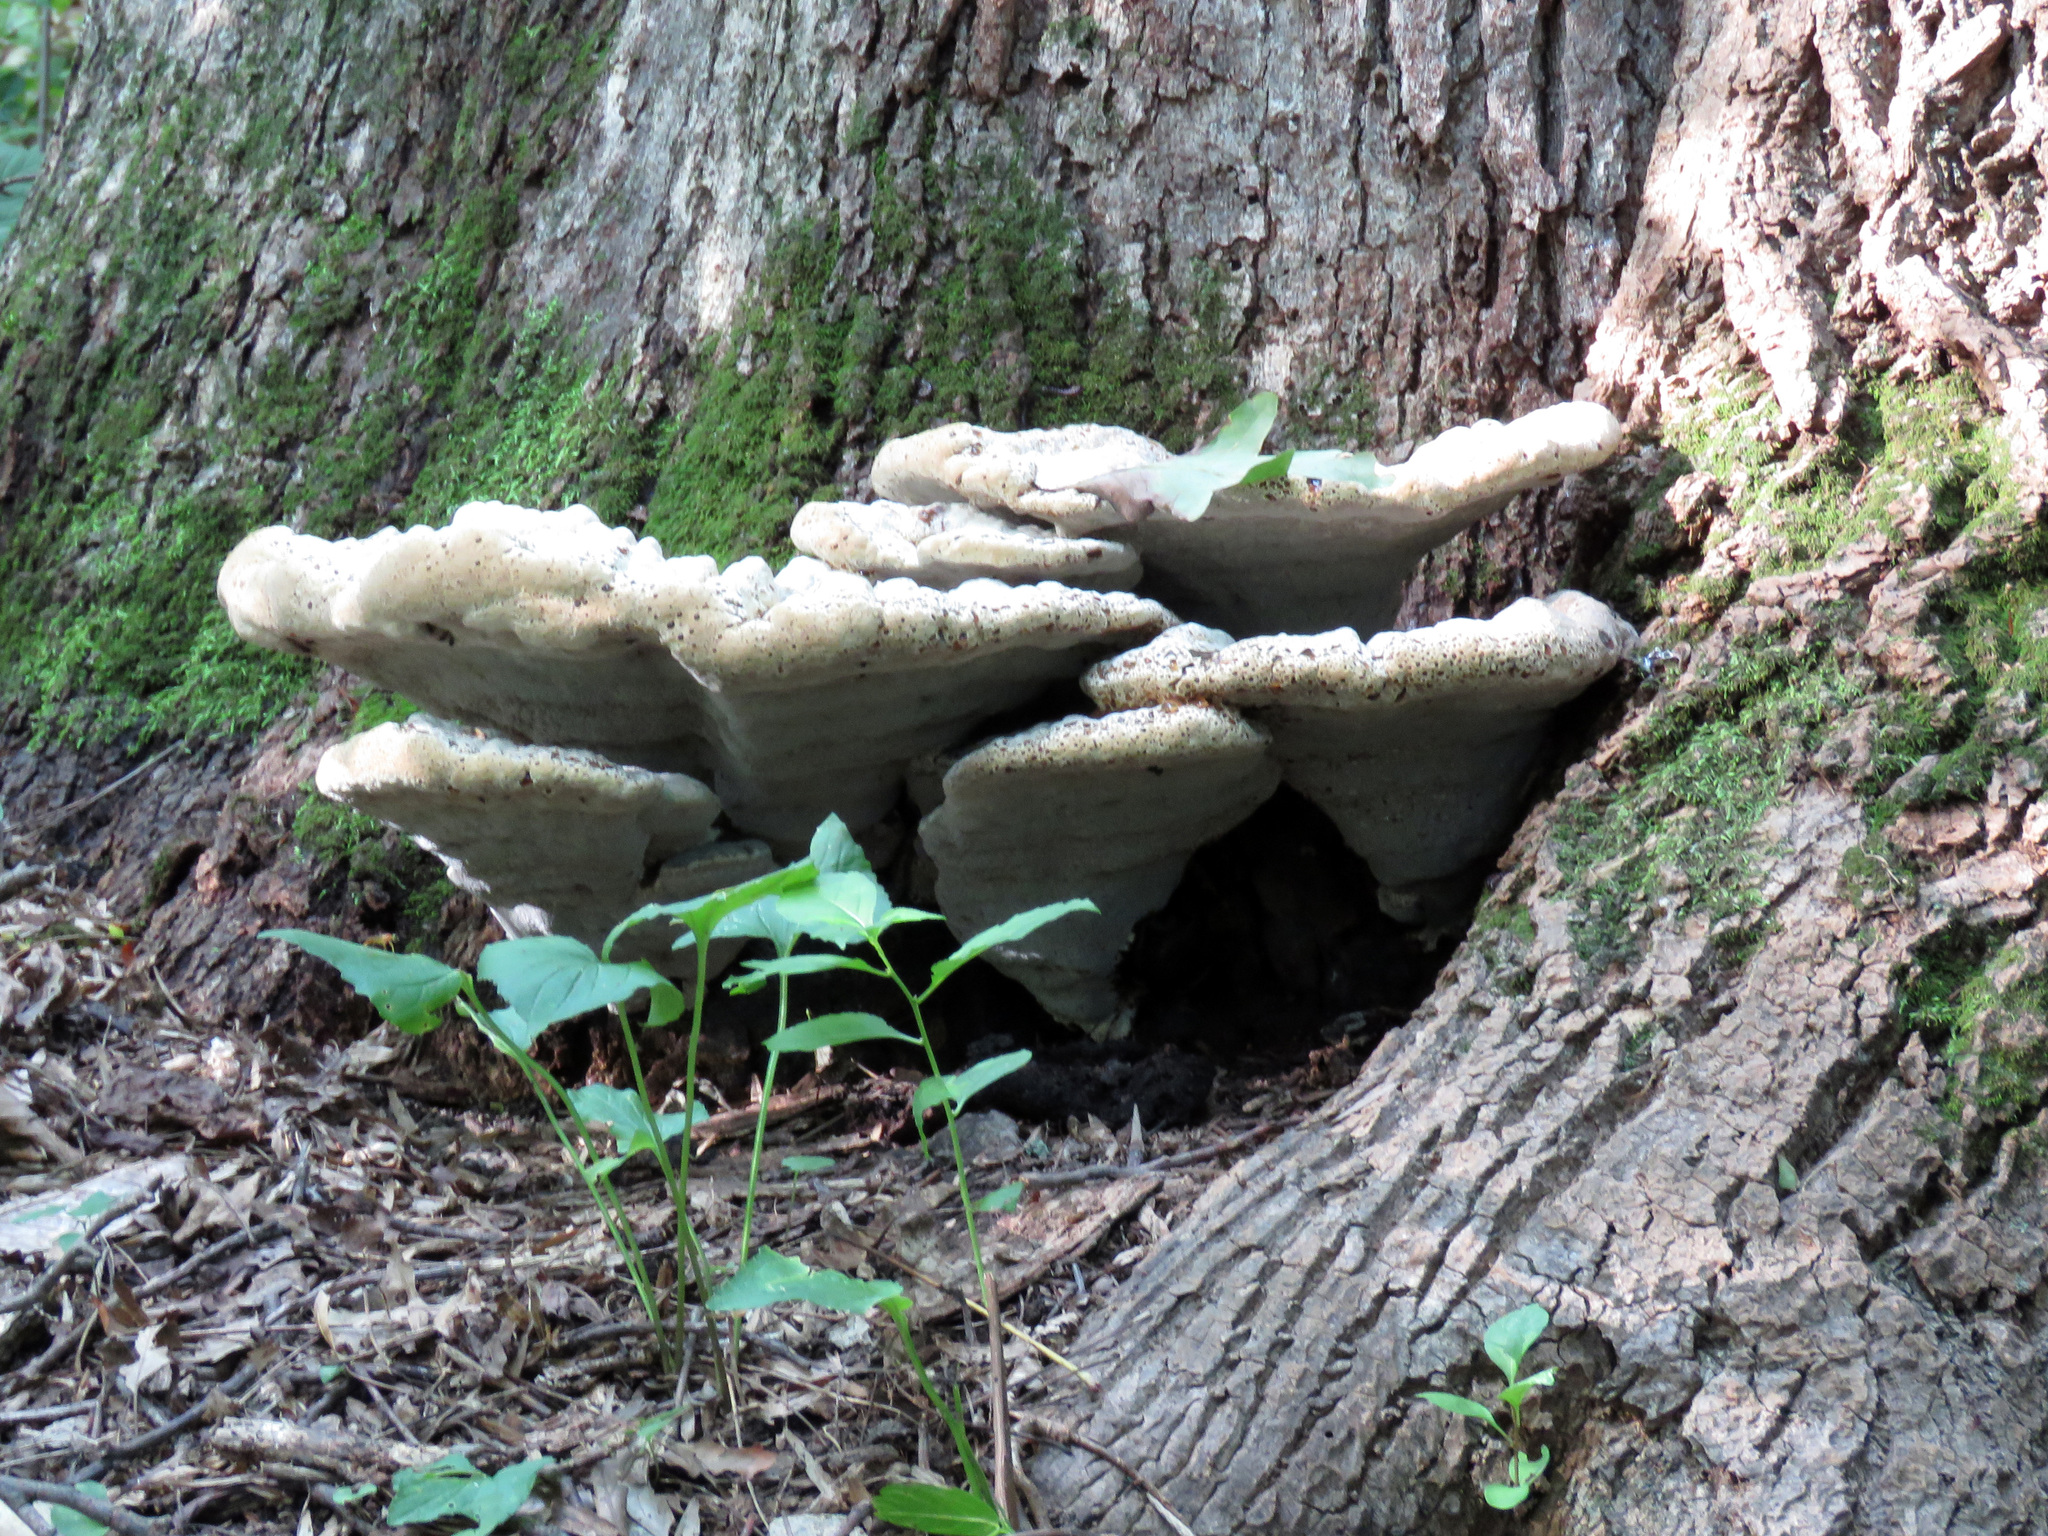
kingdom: Fungi
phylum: Basidiomycota
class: Agaricomycetes
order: Hymenochaetales
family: Hymenochaetaceae
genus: Pseudoinonotus
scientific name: Pseudoinonotus dryadeus
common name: Oak bracket
